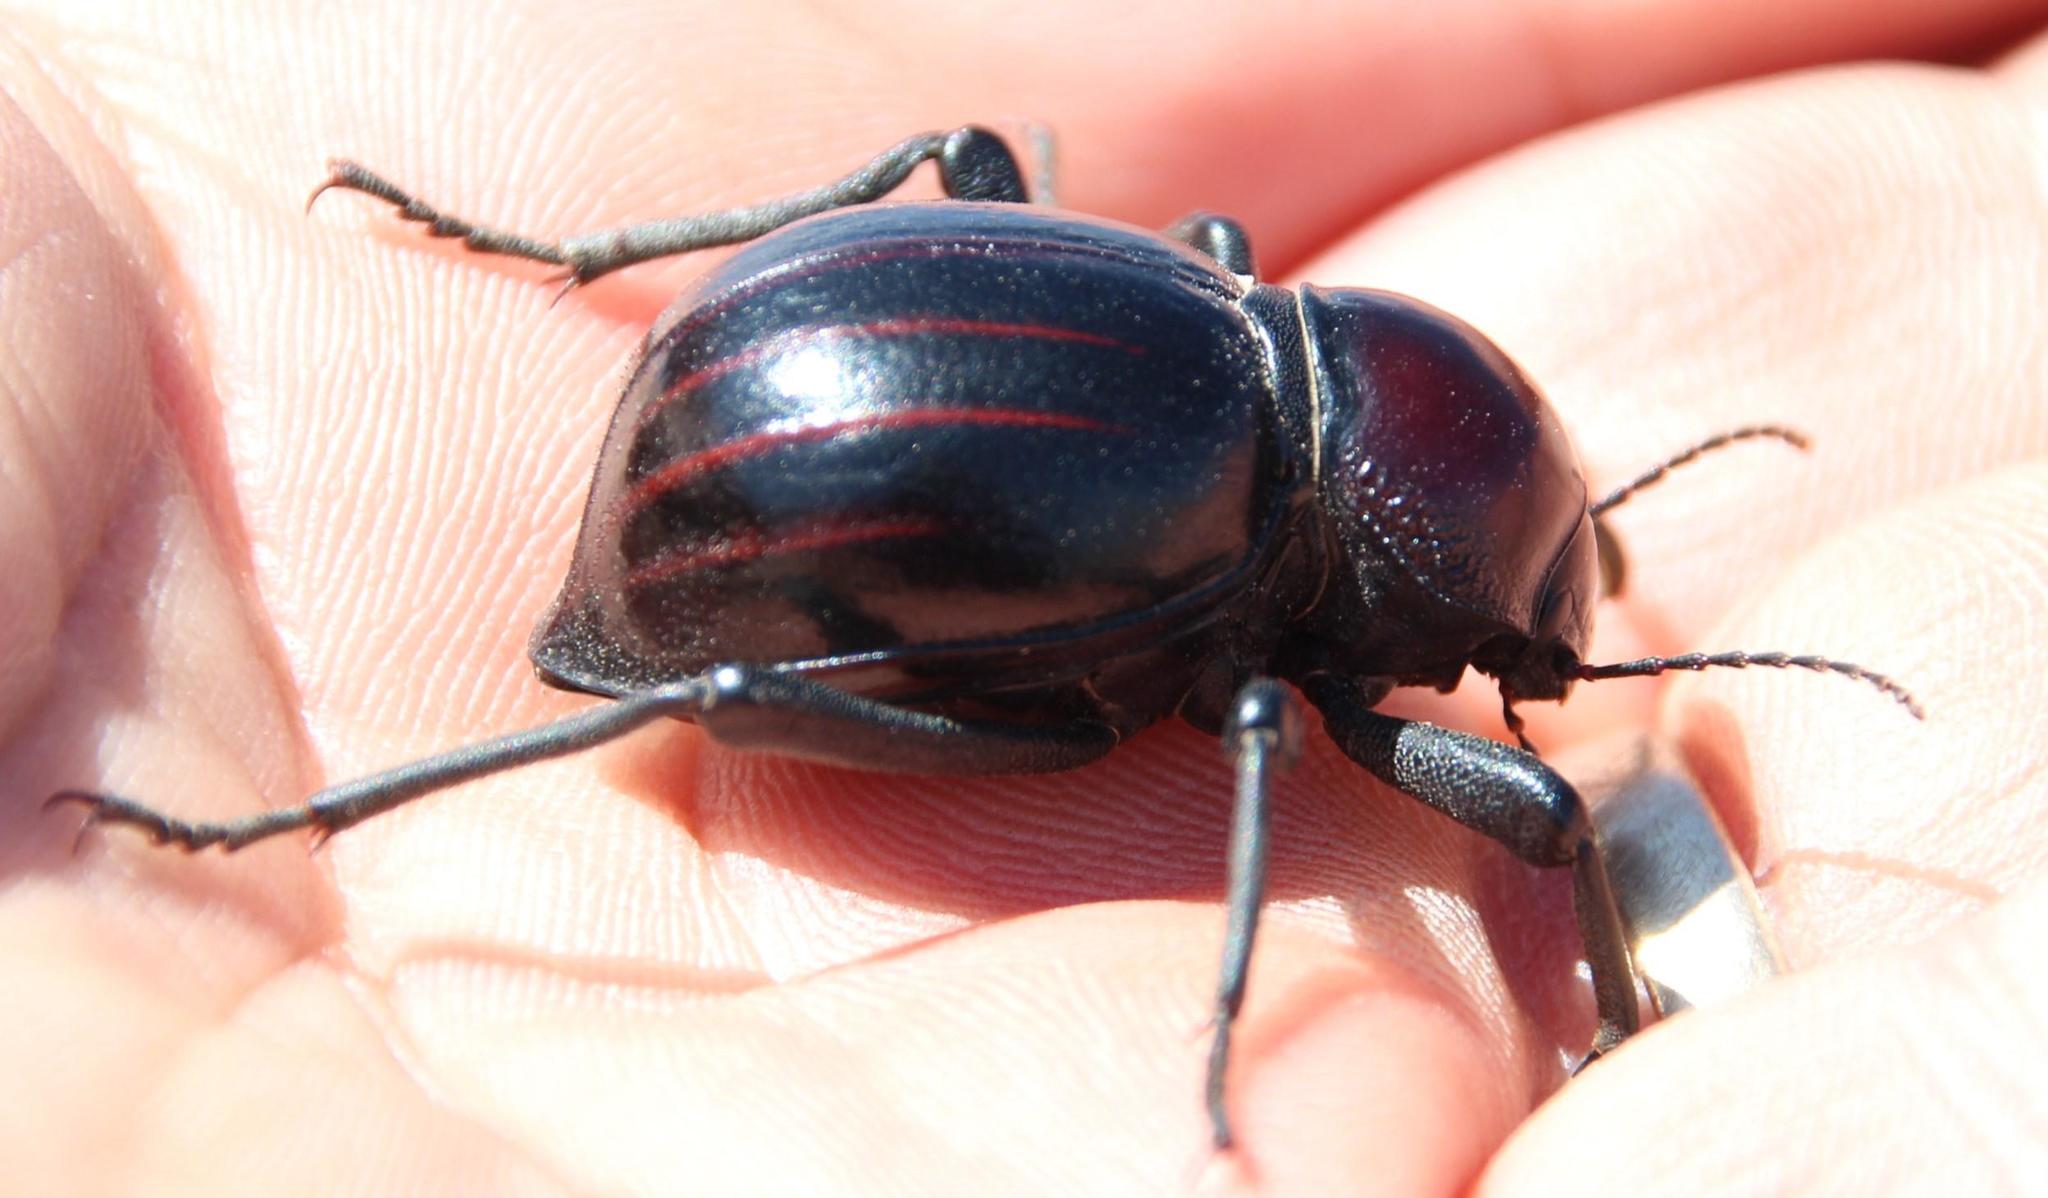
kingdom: Animalia
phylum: Arthropoda
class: Insecta
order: Coleoptera
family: Tenebrionidae
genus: Mariazofia
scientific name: Mariazofia
